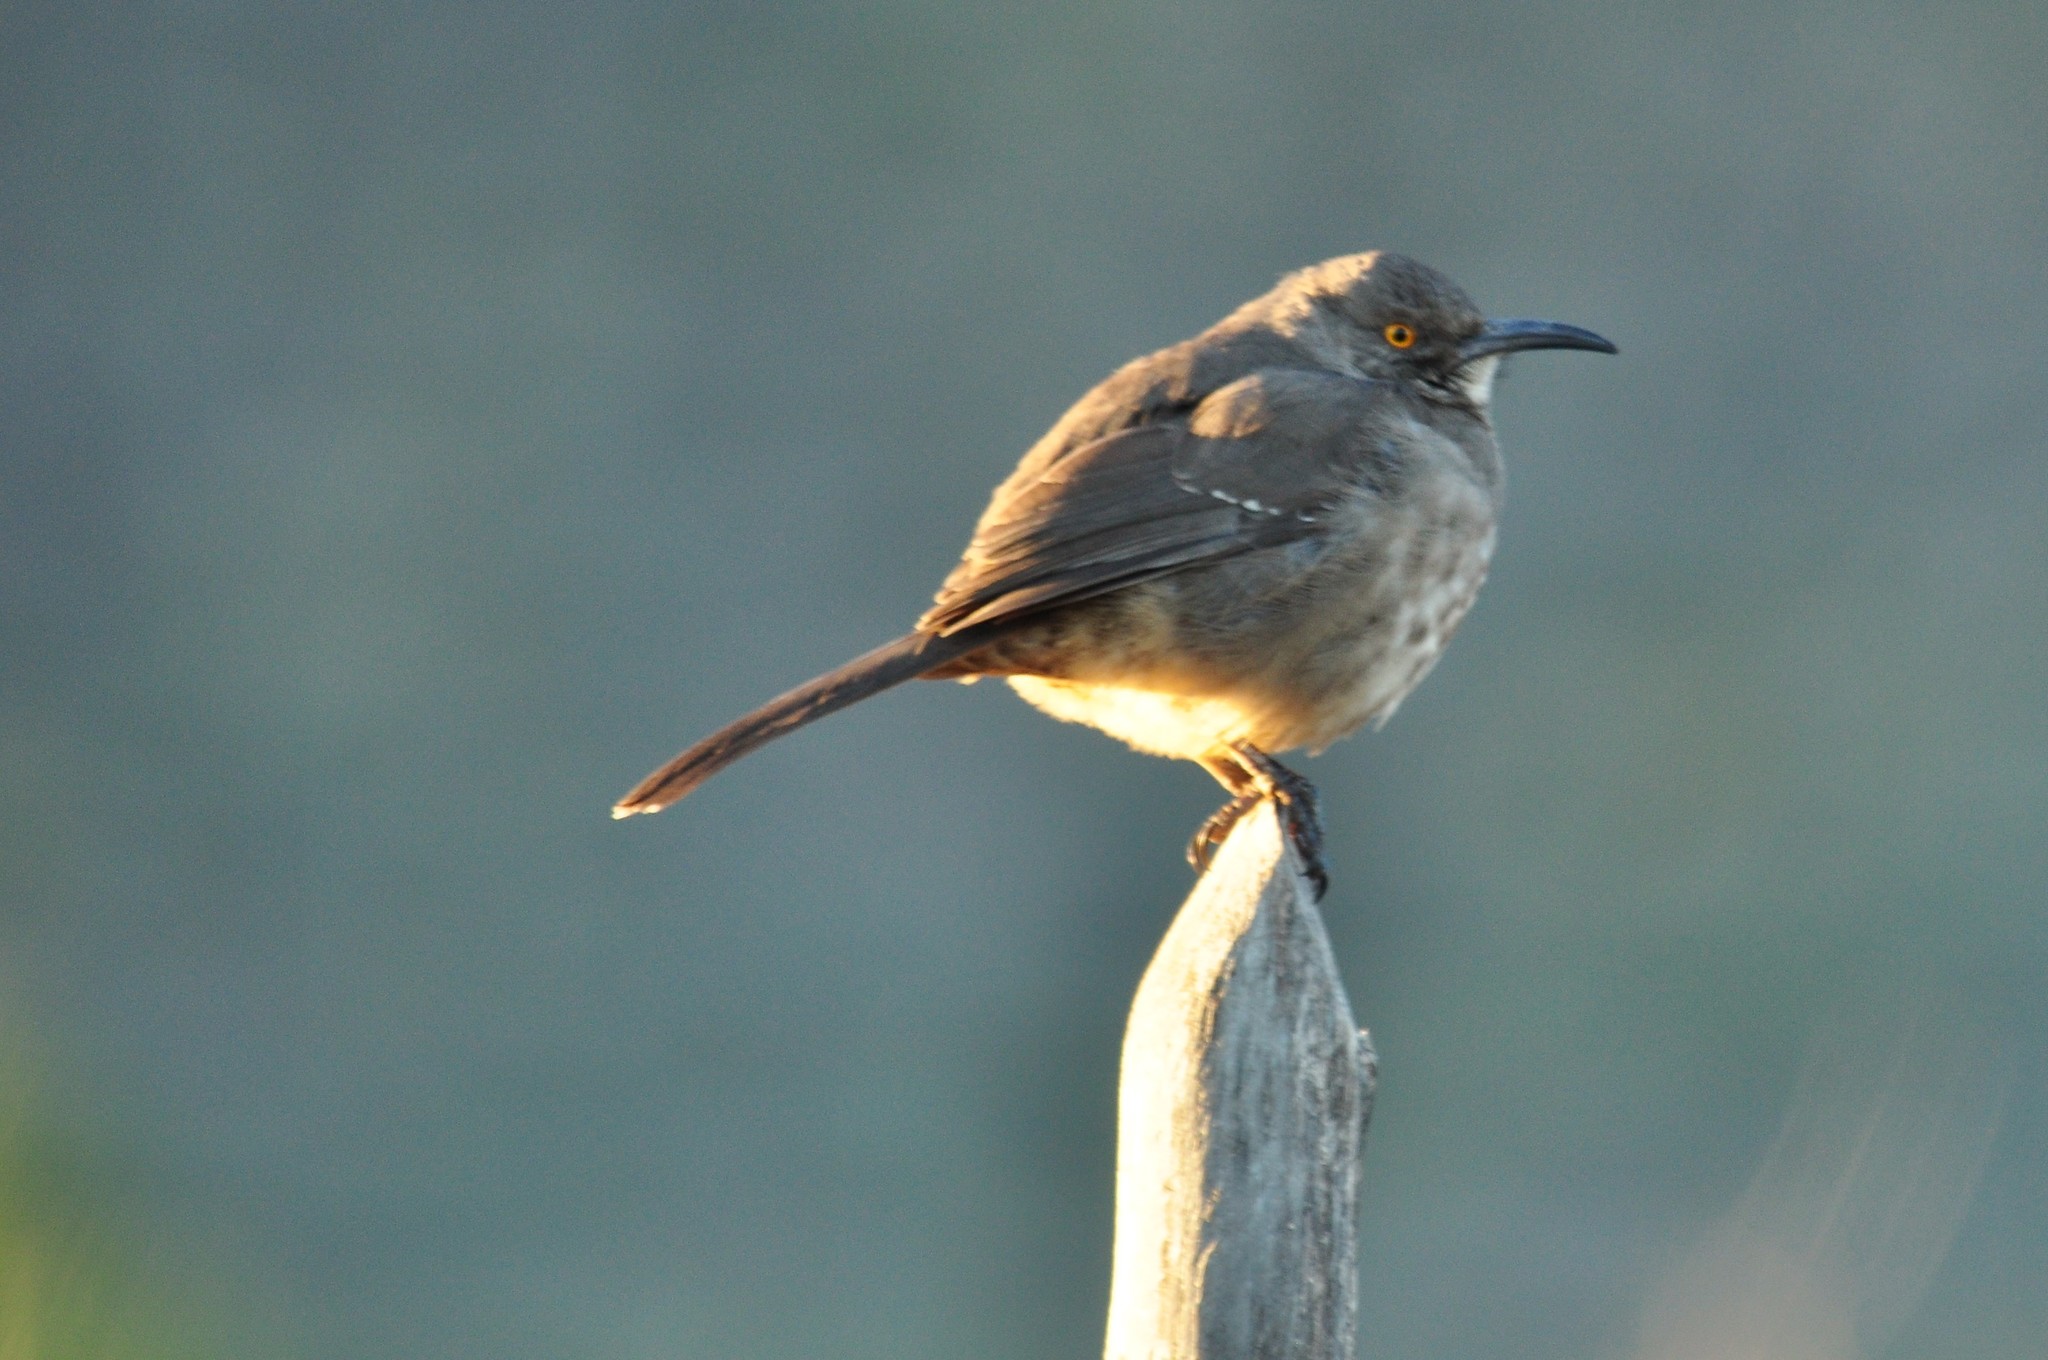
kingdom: Animalia
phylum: Chordata
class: Aves
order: Passeriformes
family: Mimidae
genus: Toxostoma
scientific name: Toxostoma curvirostre
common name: Curve-billed thrasher
